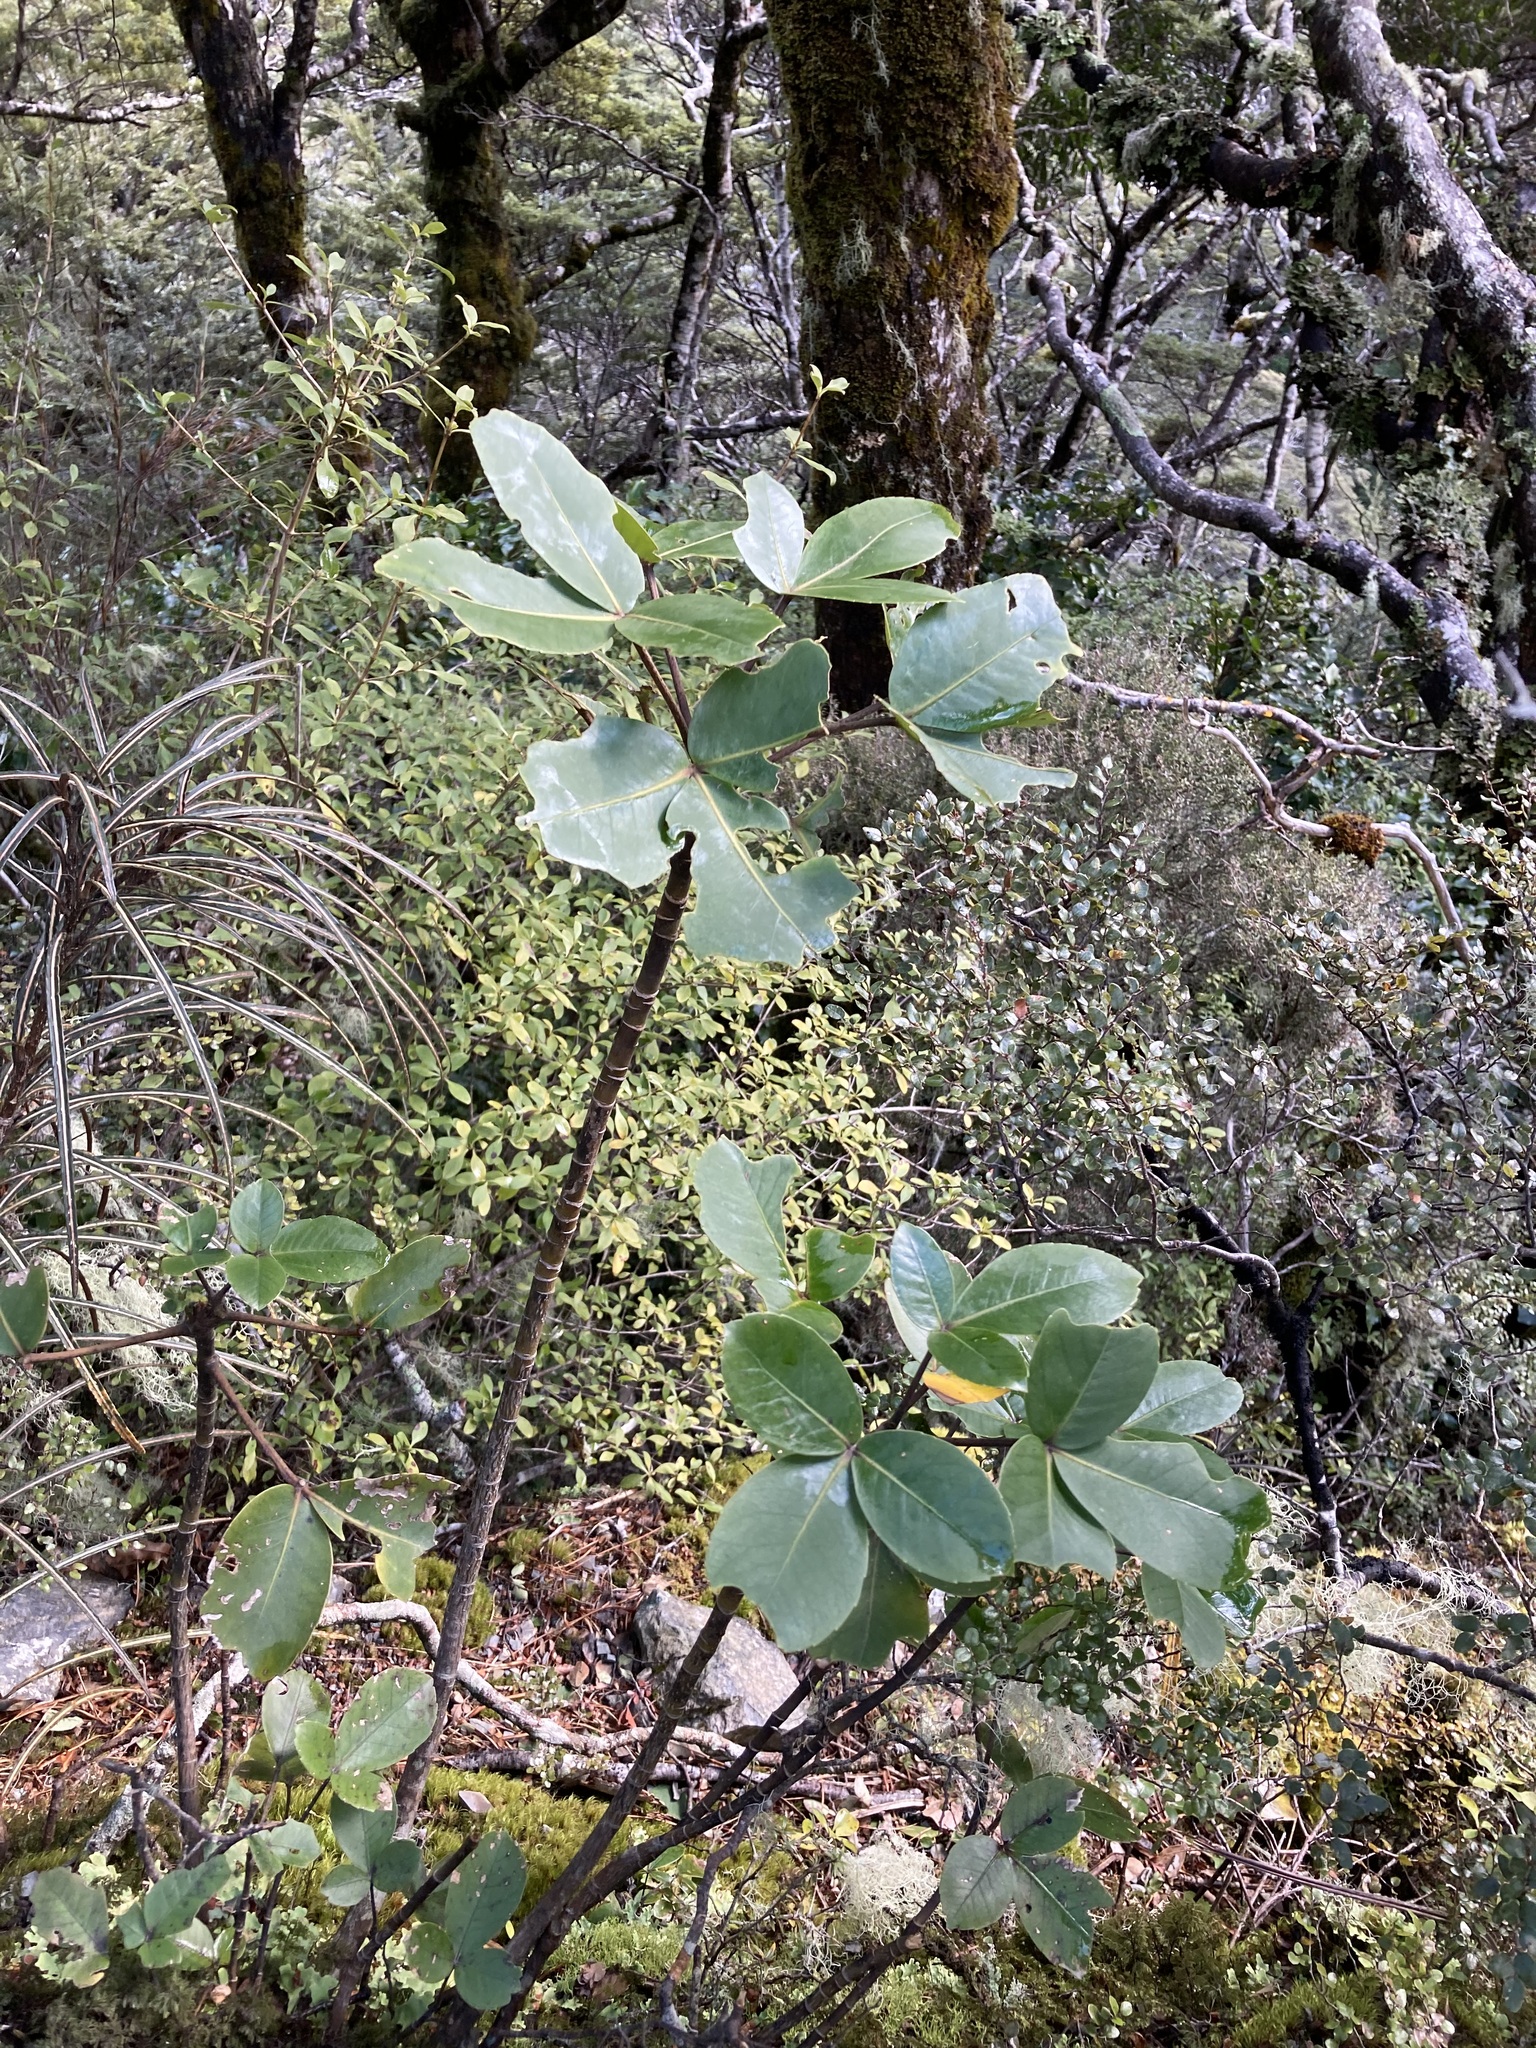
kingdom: Plantae
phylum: Tracheophyta
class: Magnoliopsida
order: Apiales
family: Araliaceae
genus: Neopanax
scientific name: Neopanax colensoi
